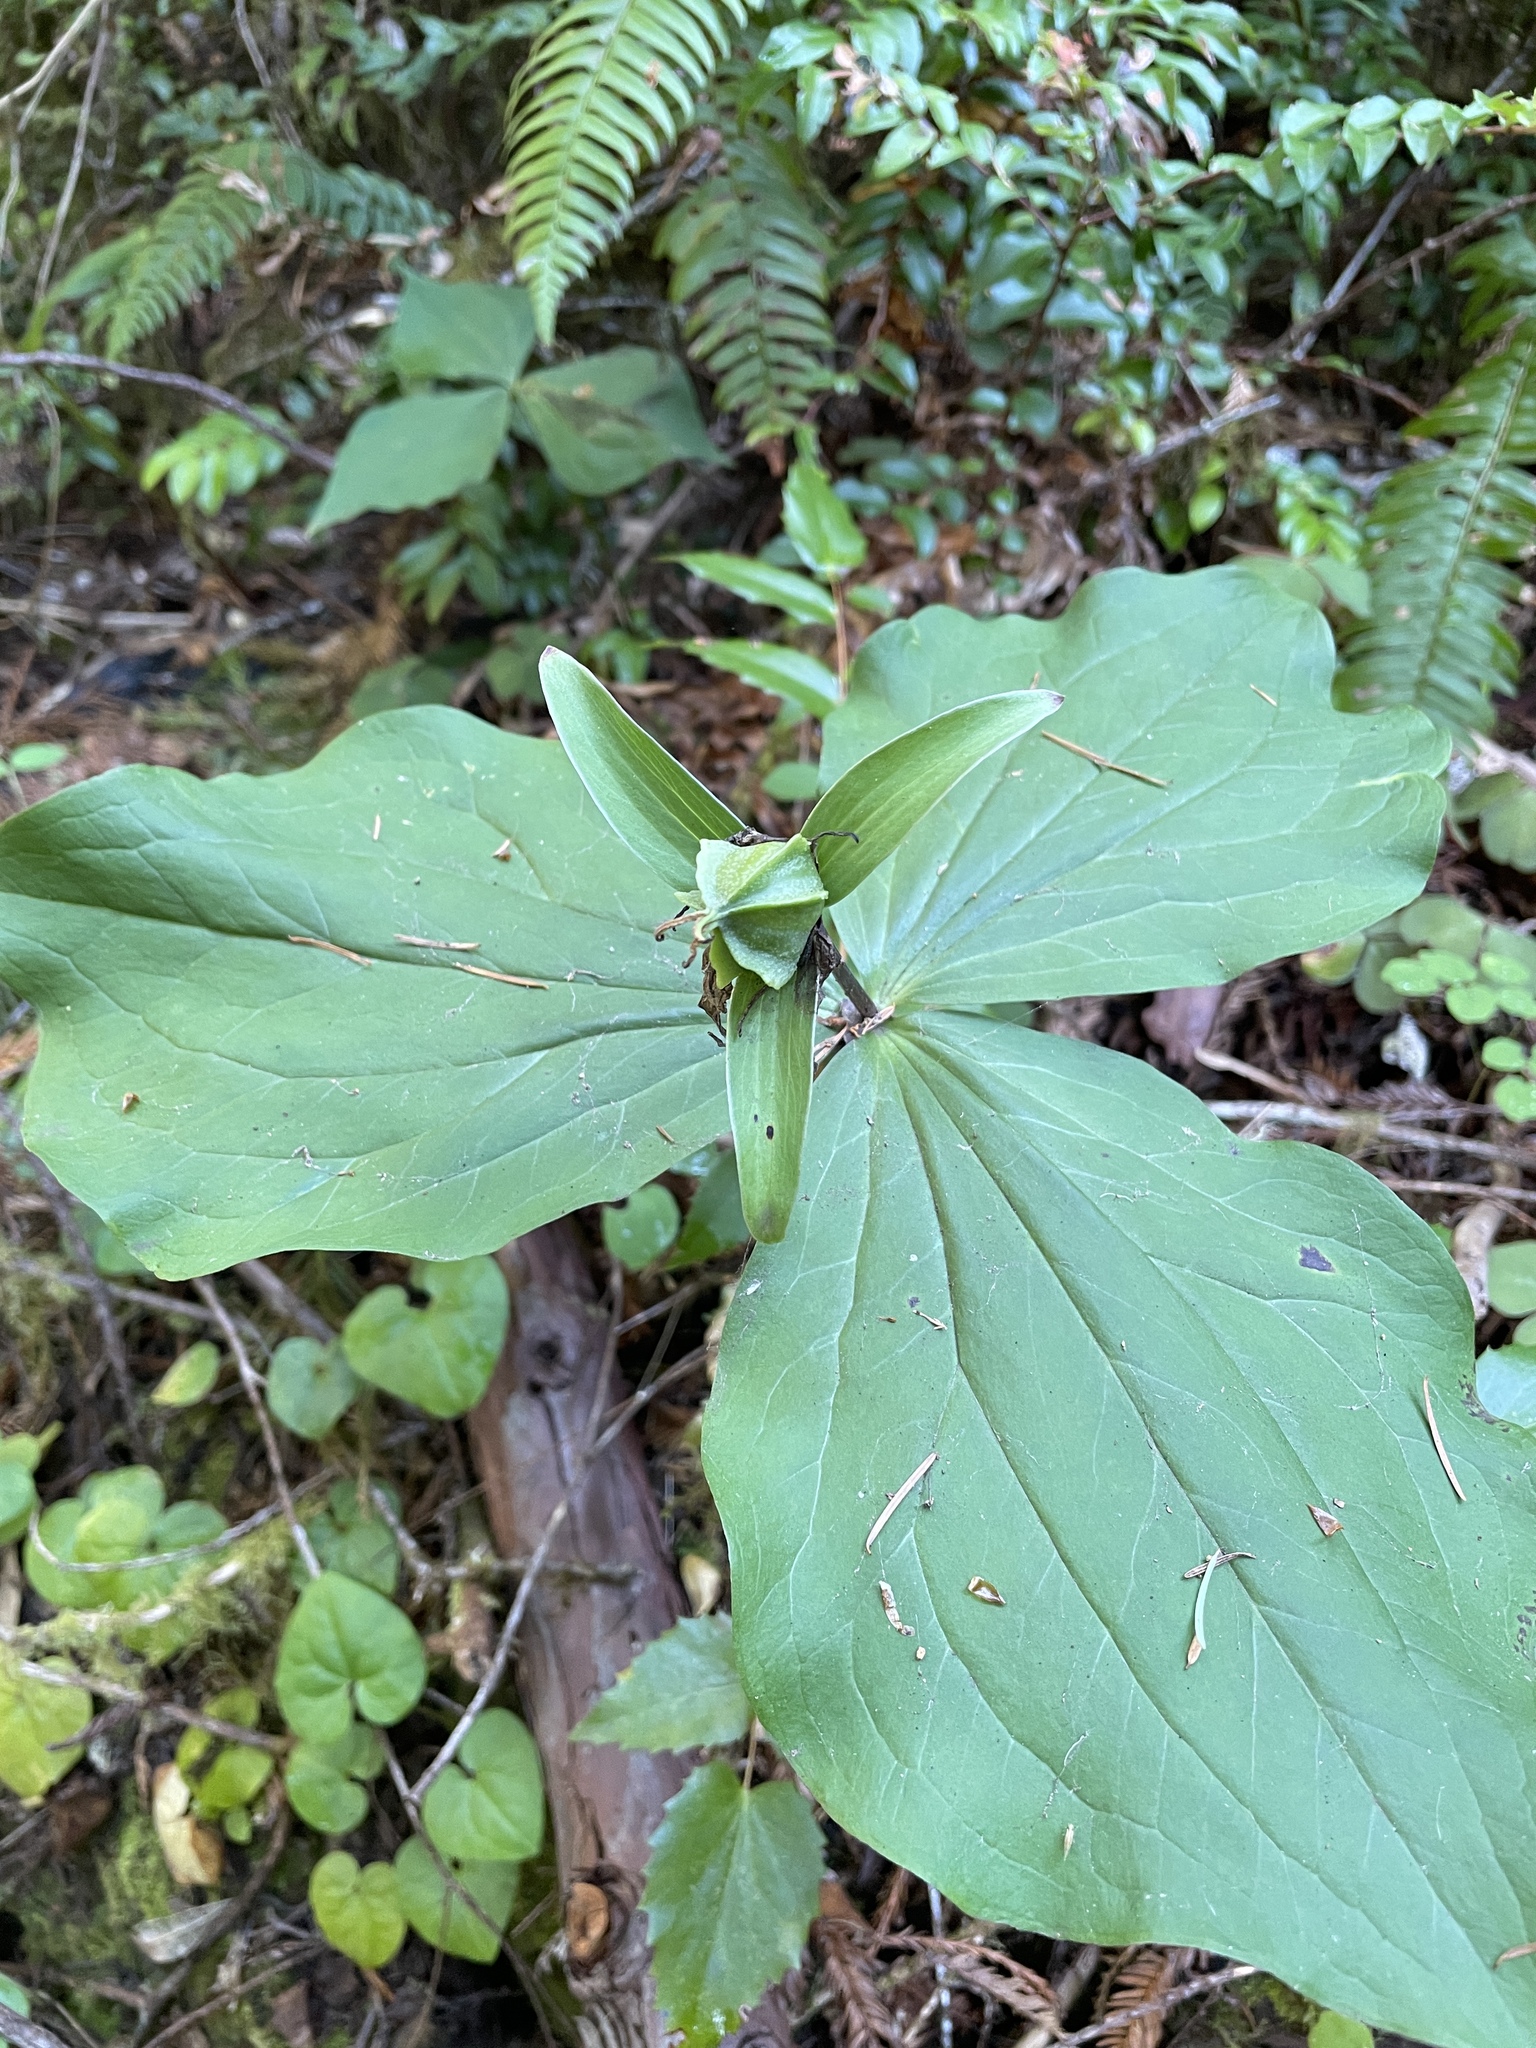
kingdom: Plantae
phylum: Tracheophyta
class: Liliopsida
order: Liliales
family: Melanthiaceae
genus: Trillium
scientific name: Trillium ovatum
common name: Pacific trillium
